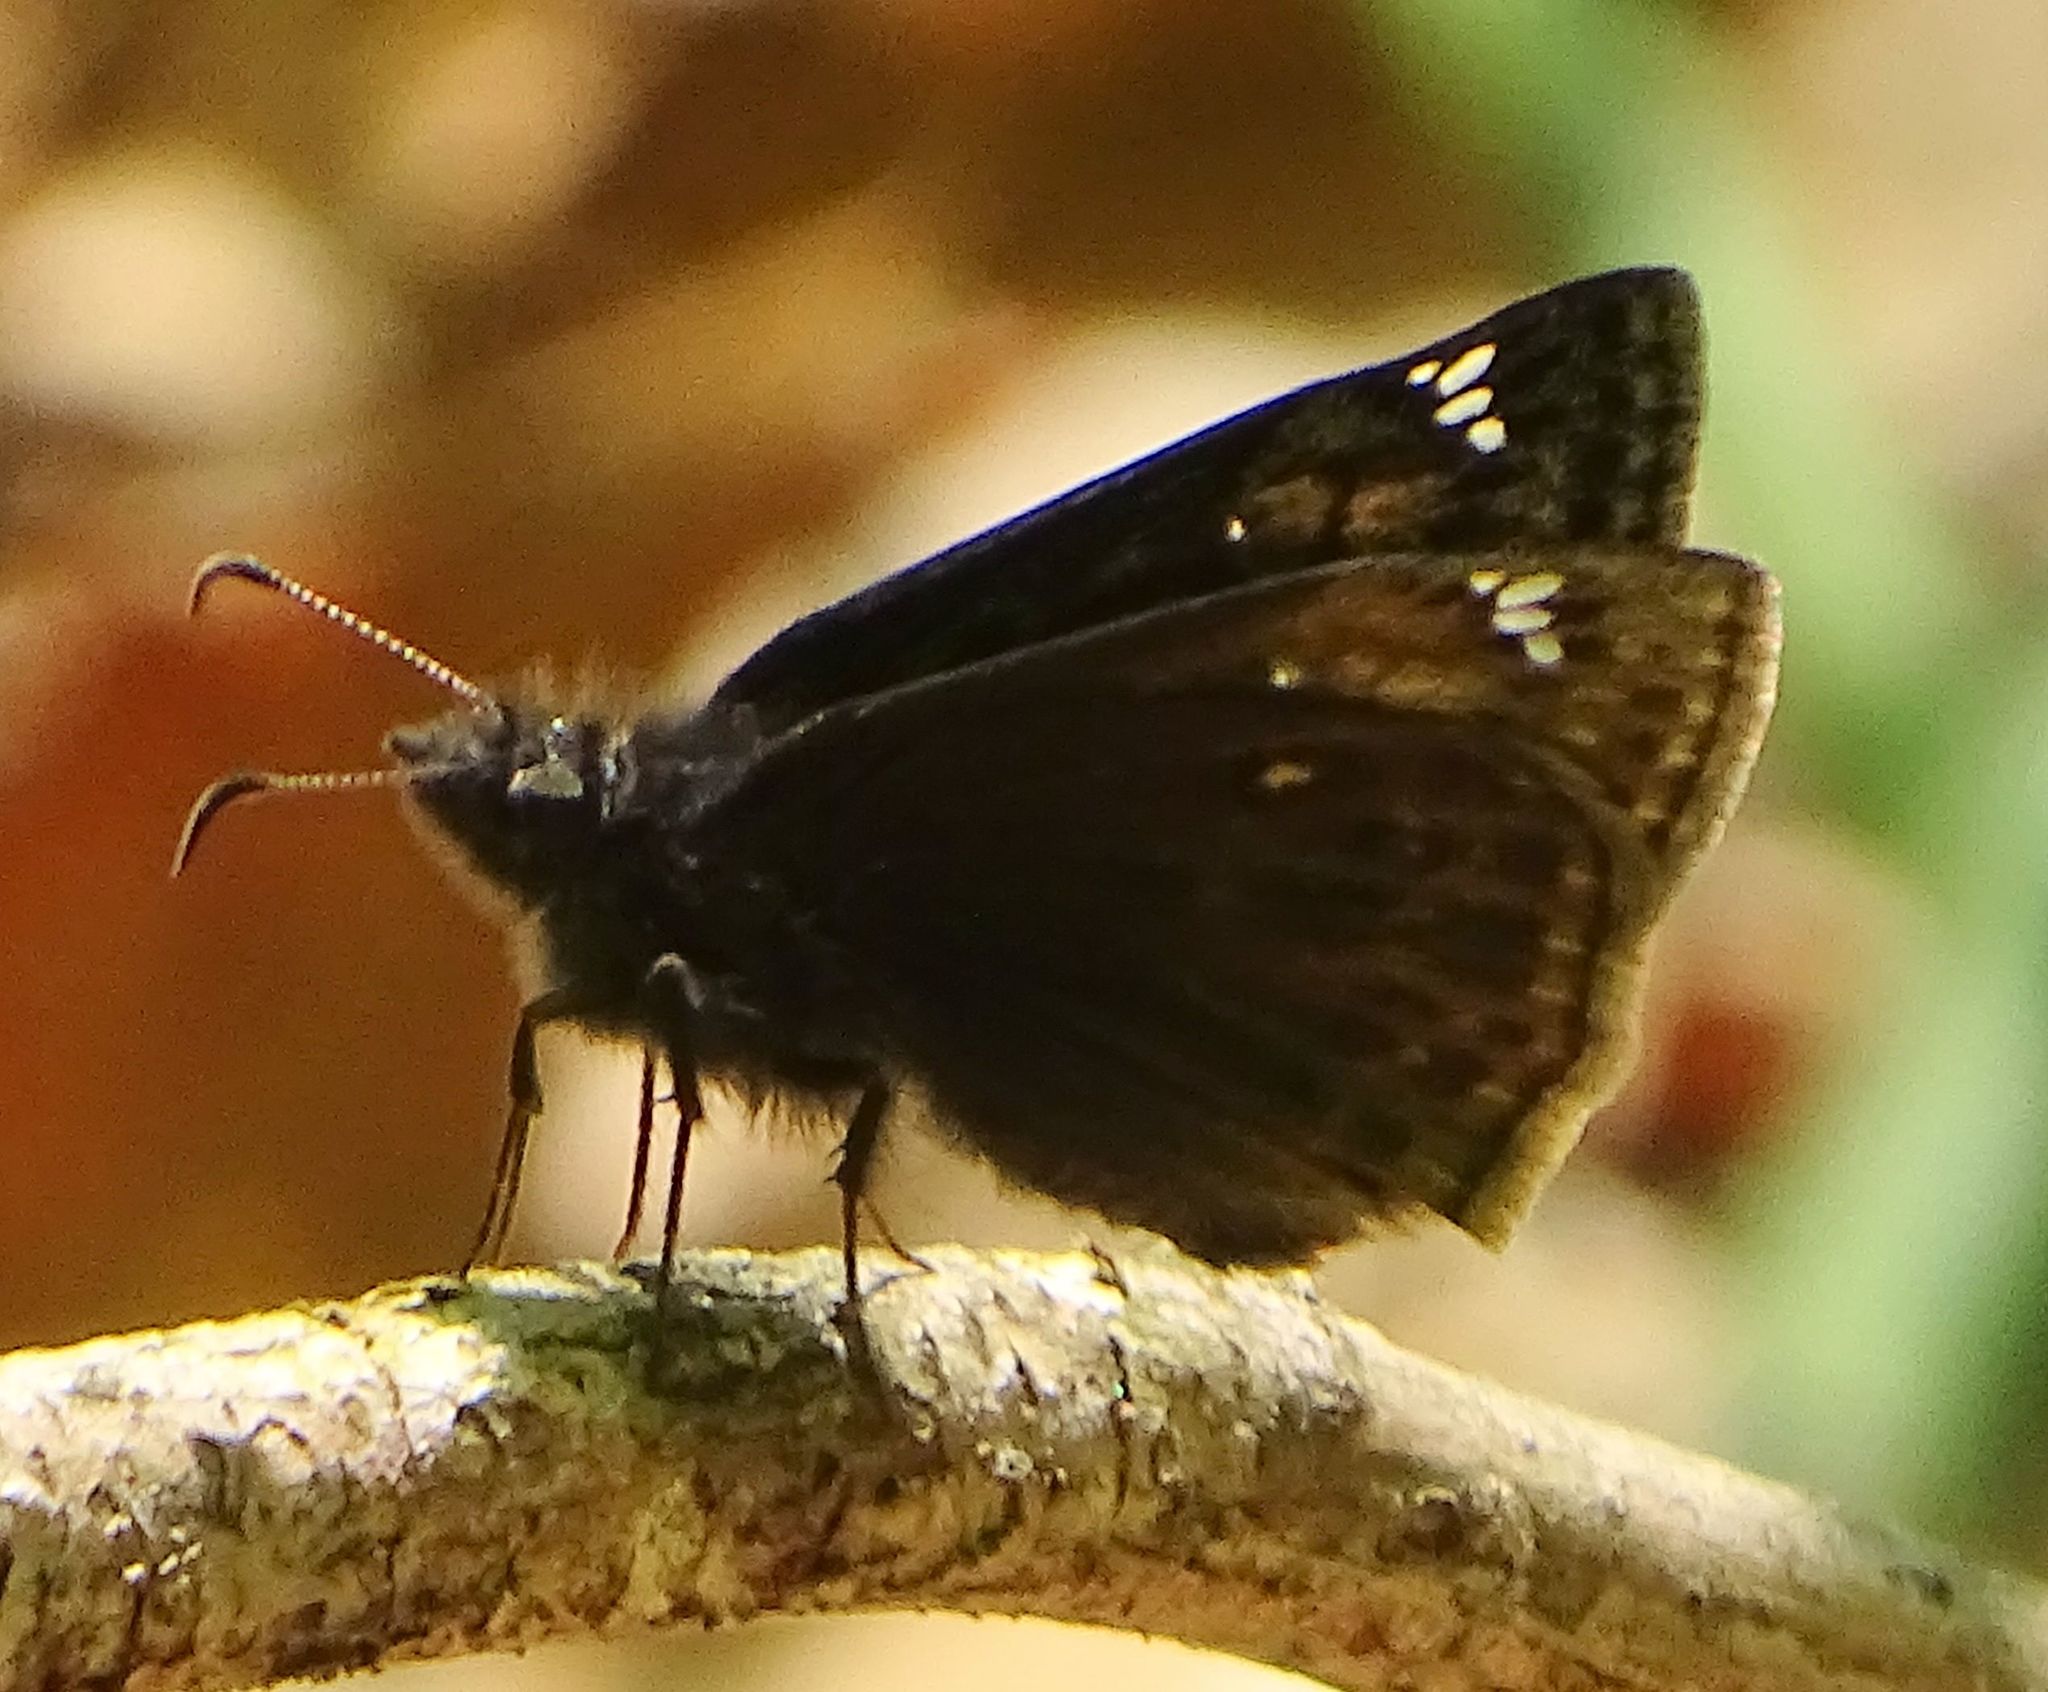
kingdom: Animalia
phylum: Arthropoda
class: Insecta
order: Lepidoptera
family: Hesperiidae
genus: Erynnis
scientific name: Erynnis juvenalis
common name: Juvenal's duskywing
